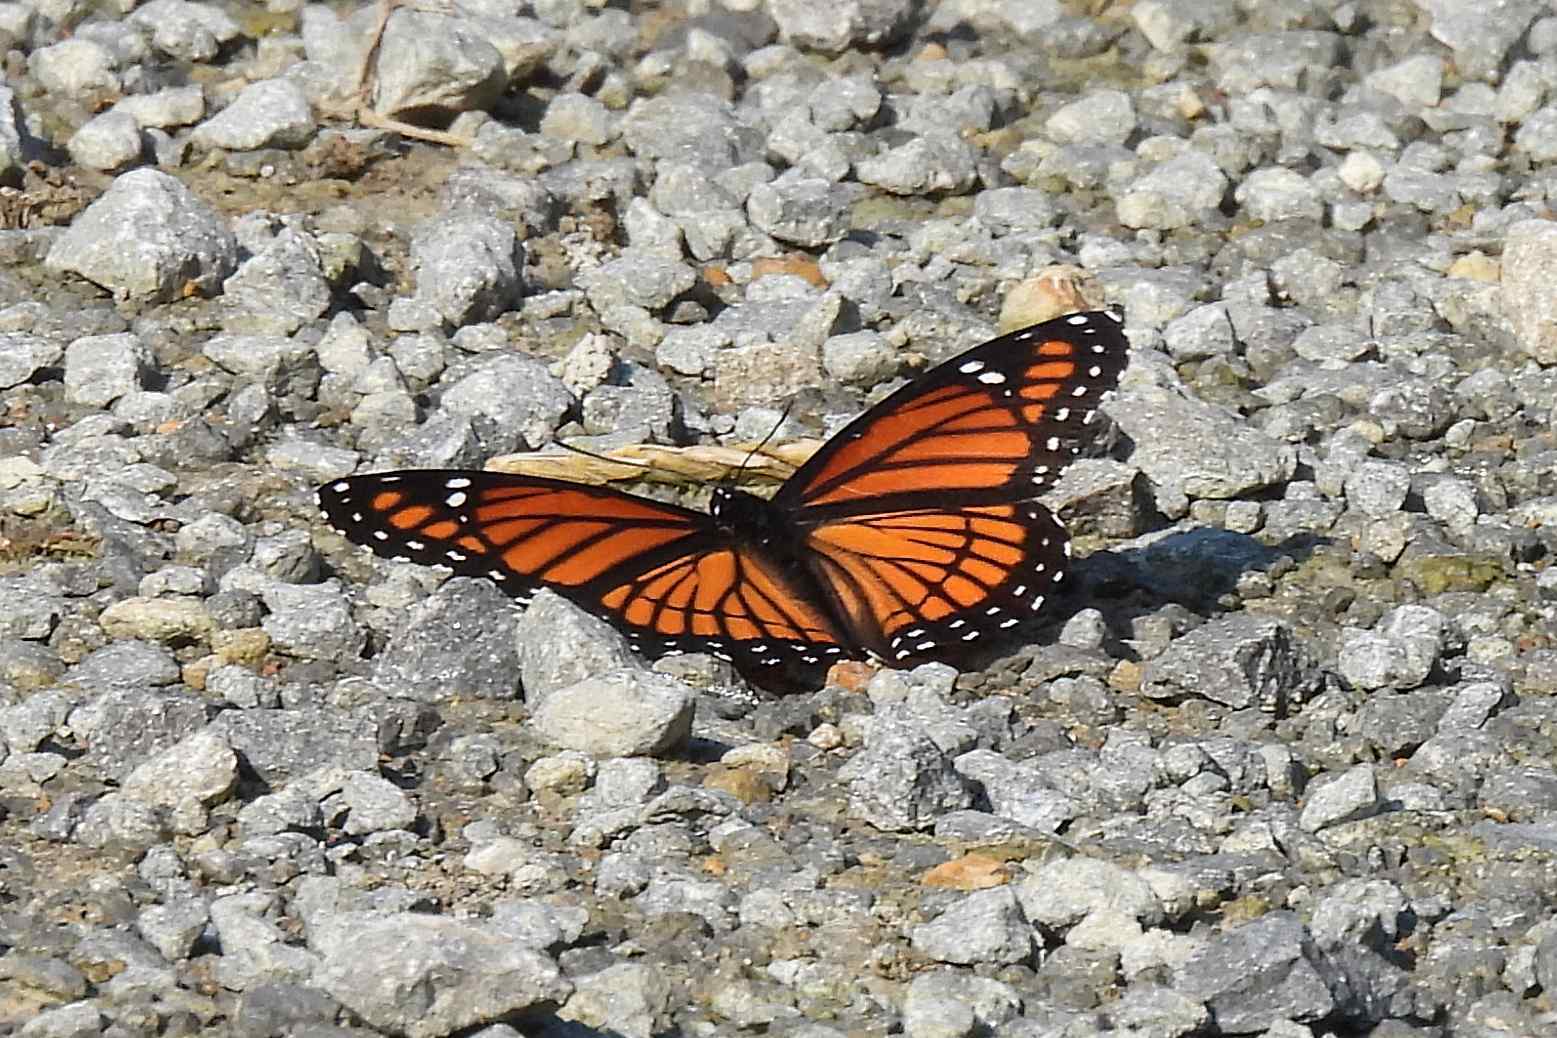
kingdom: Animalia
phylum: Arthropoda
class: Insecta
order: Lepidoptera
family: Nymphalidae
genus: Limenitis
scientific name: Limenitis archippus
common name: Viceroy
